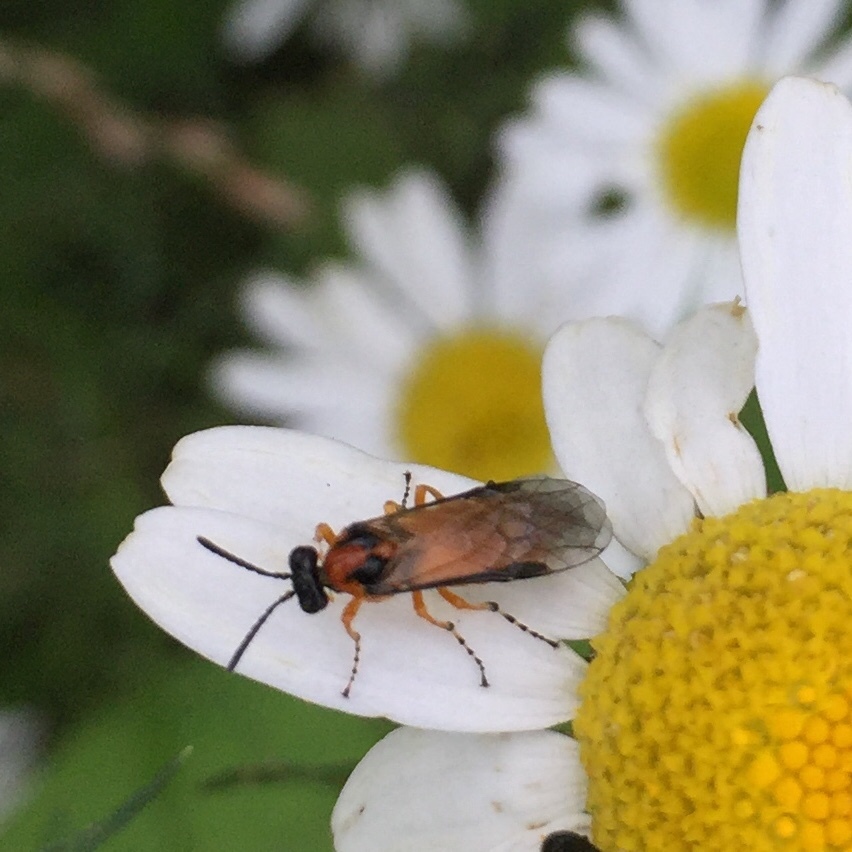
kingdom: Animalia
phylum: Arthropoda
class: Insecta
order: Hymenoptera
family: Tenthredinidae
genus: Athalia
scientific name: Athalia rosae
